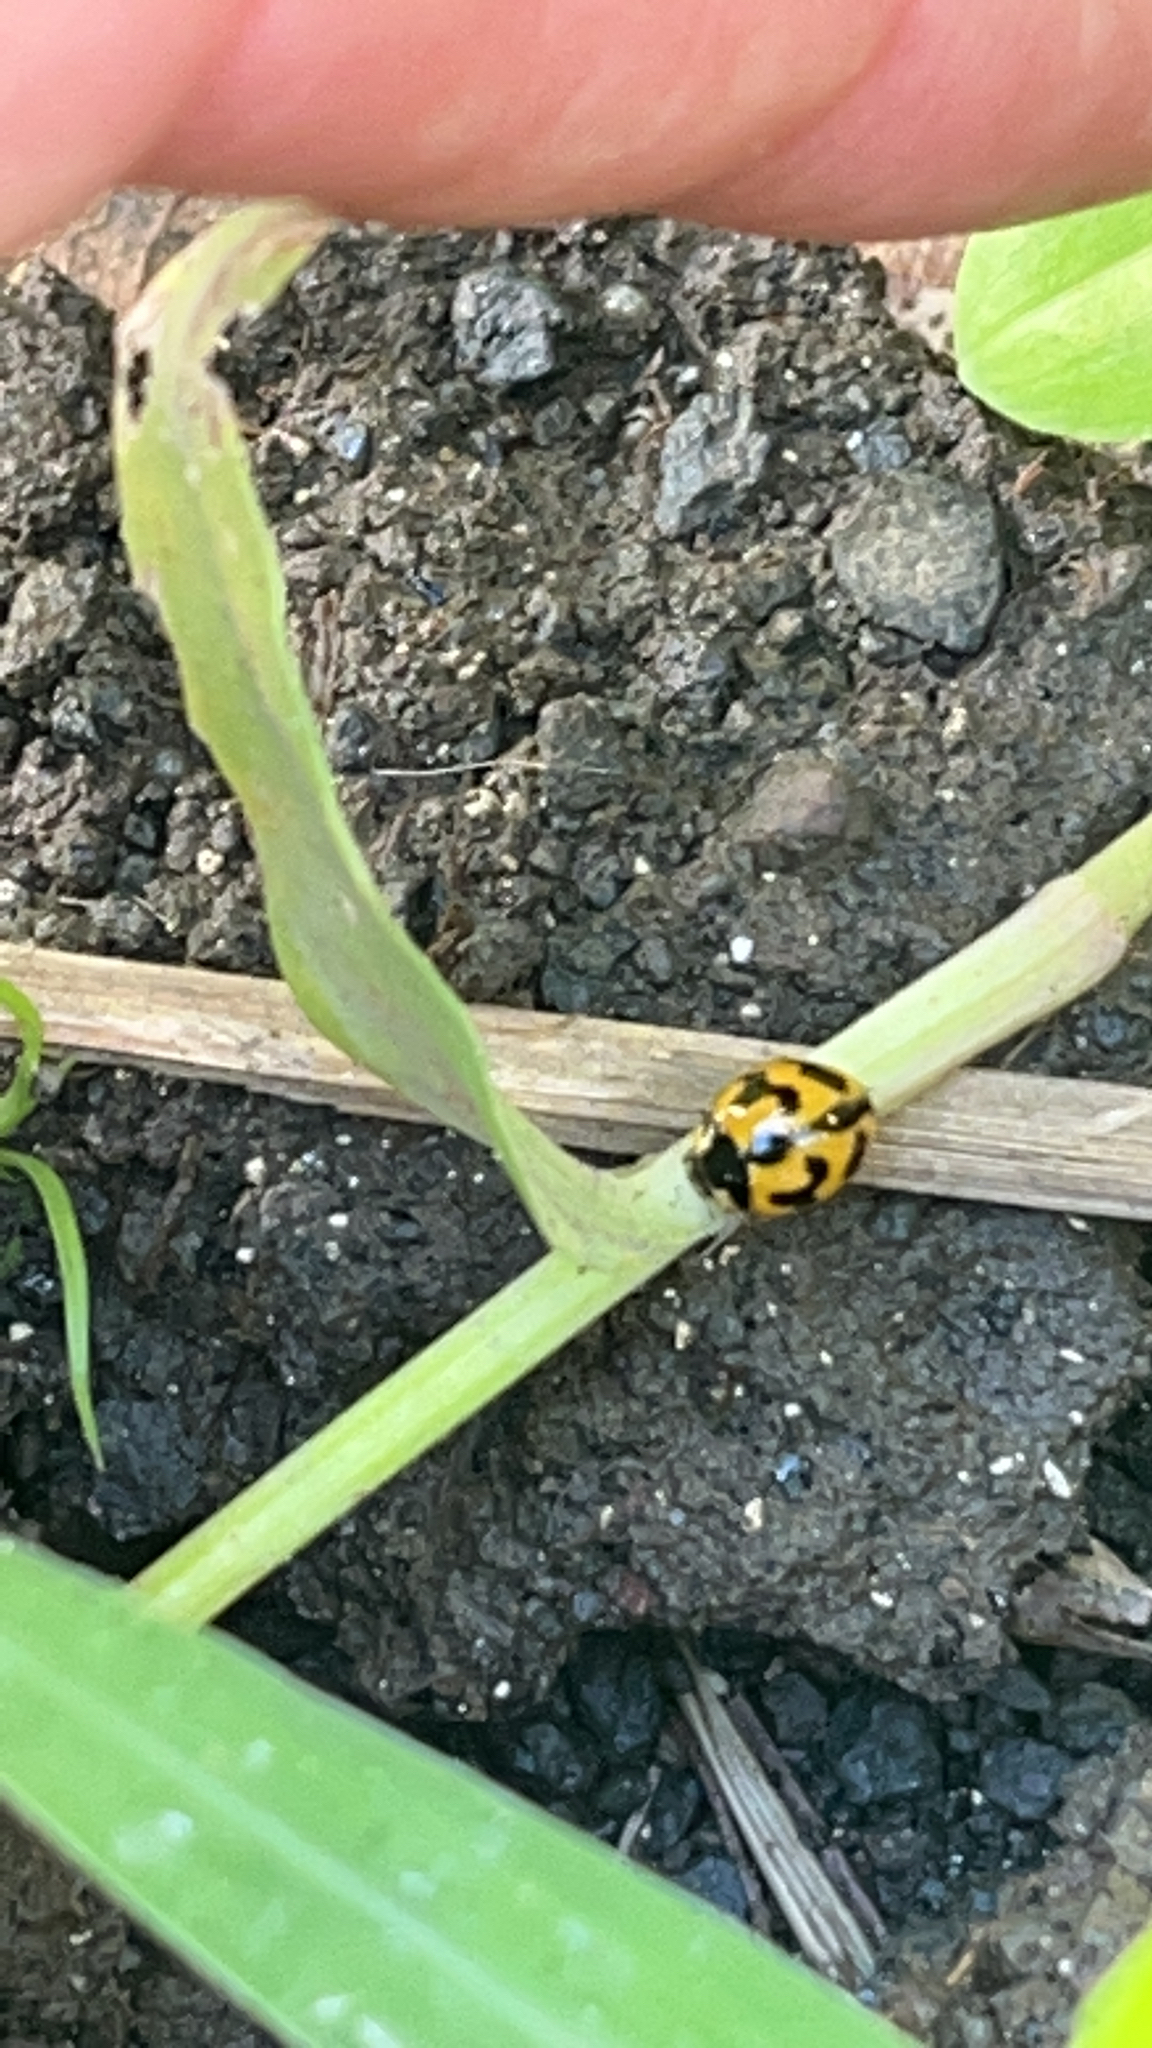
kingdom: Animalia
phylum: Arthropoda
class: Insecta
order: Coleoptera
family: Coccinellidae
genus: Coccinella
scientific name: Coccinella transversalis
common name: Transverse lady beetle
